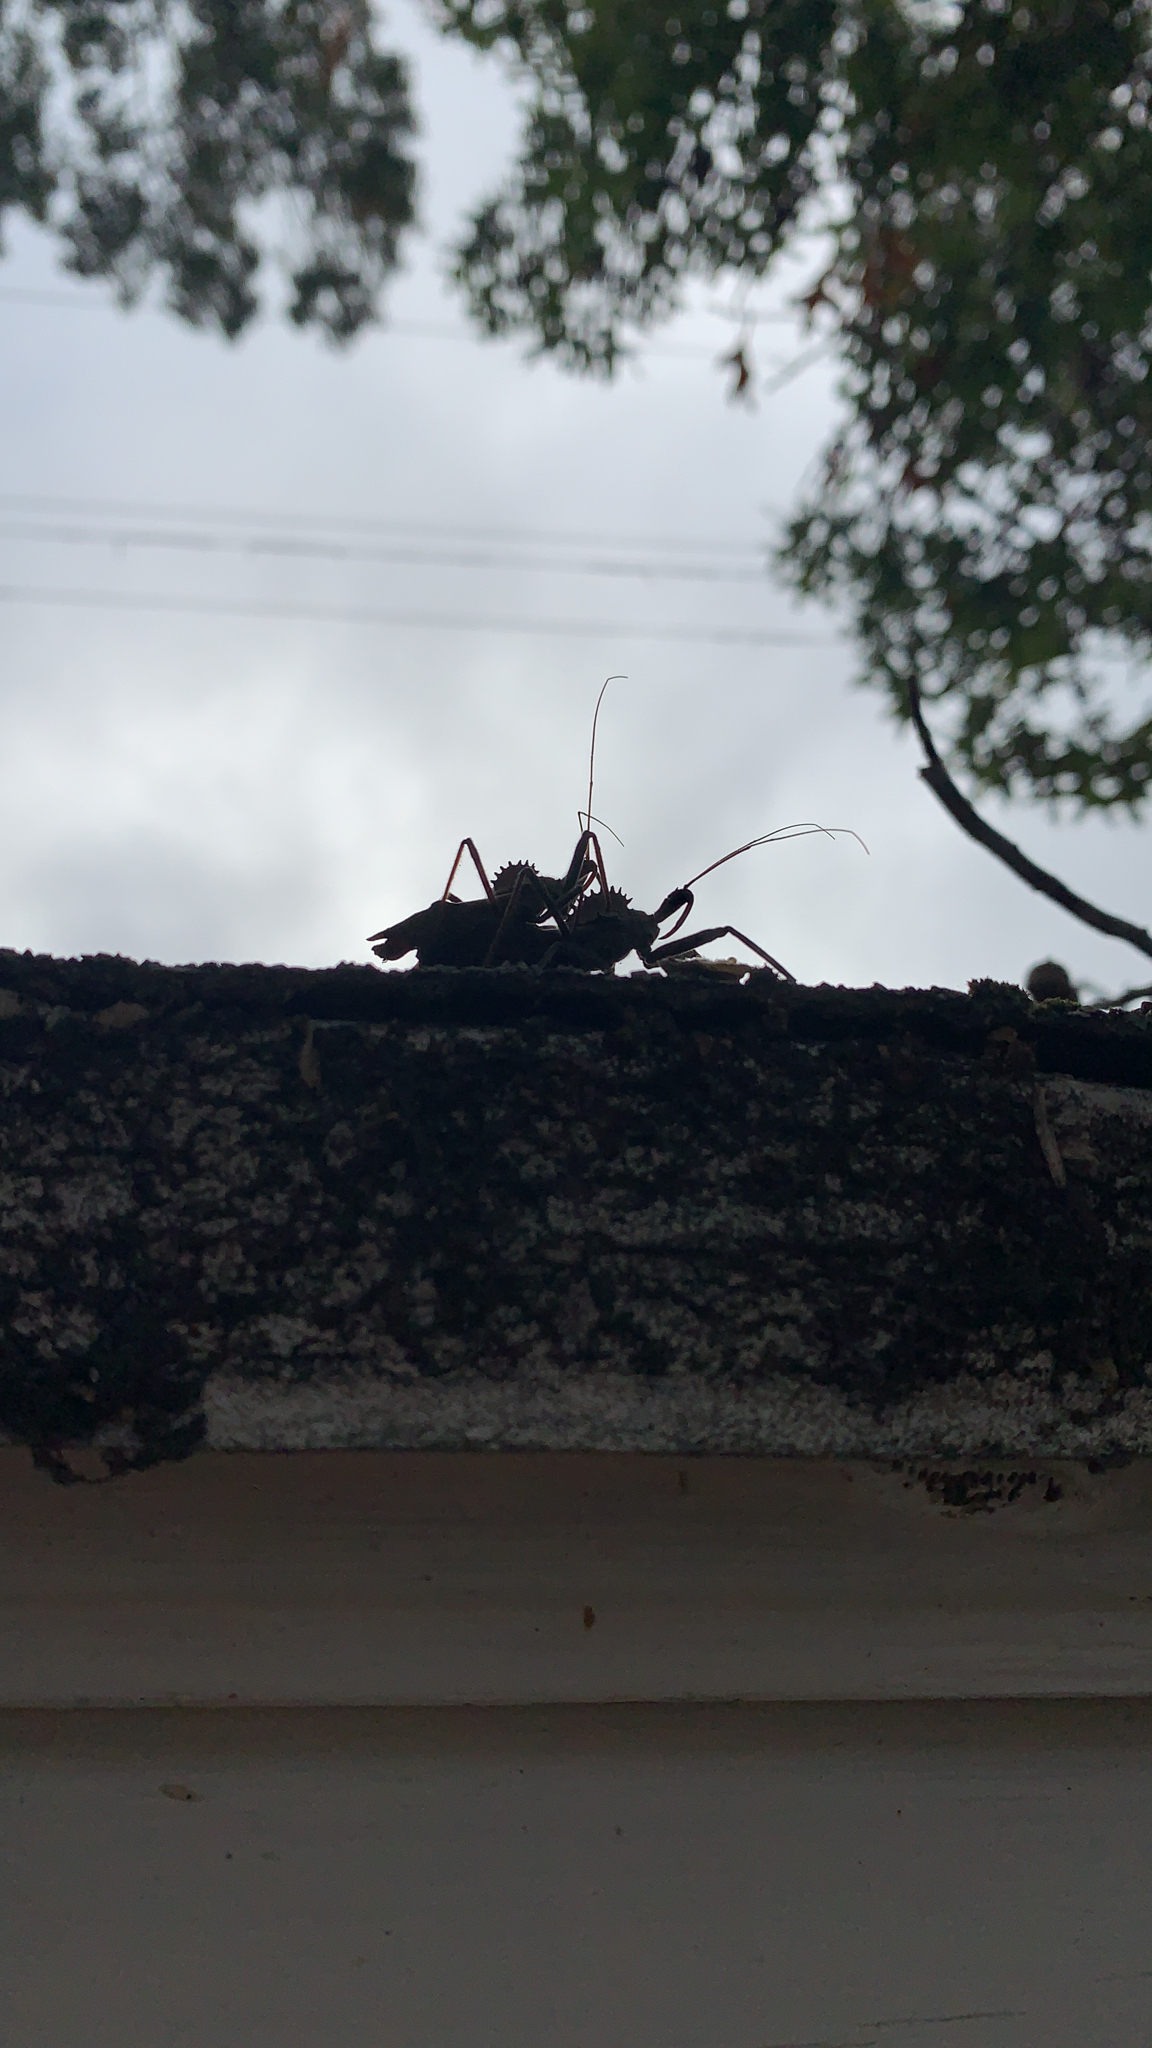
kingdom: Animalia
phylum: Arthropoda
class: Insecta
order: Hemiptera
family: Reduviidae
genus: Arilus
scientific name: Arilus cristatus
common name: North american wheel bug
